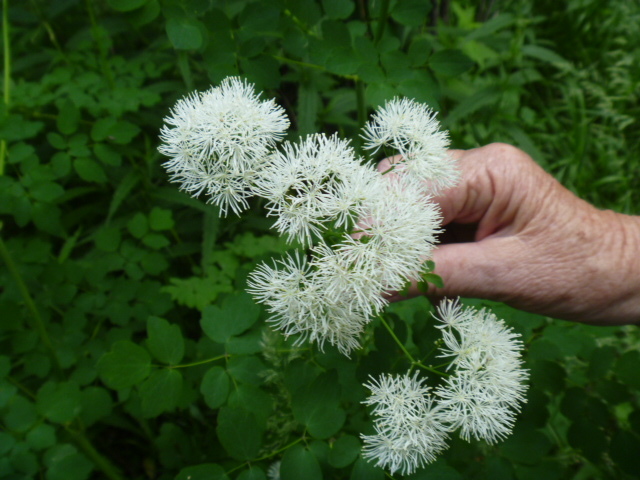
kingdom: Plantae
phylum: Tracheophyta
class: Magnoliopsida
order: Ranunculales
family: Ranunculaceae
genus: Thalictrum
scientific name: Thalictrum aquilegiifolium
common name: French meadow-rue
